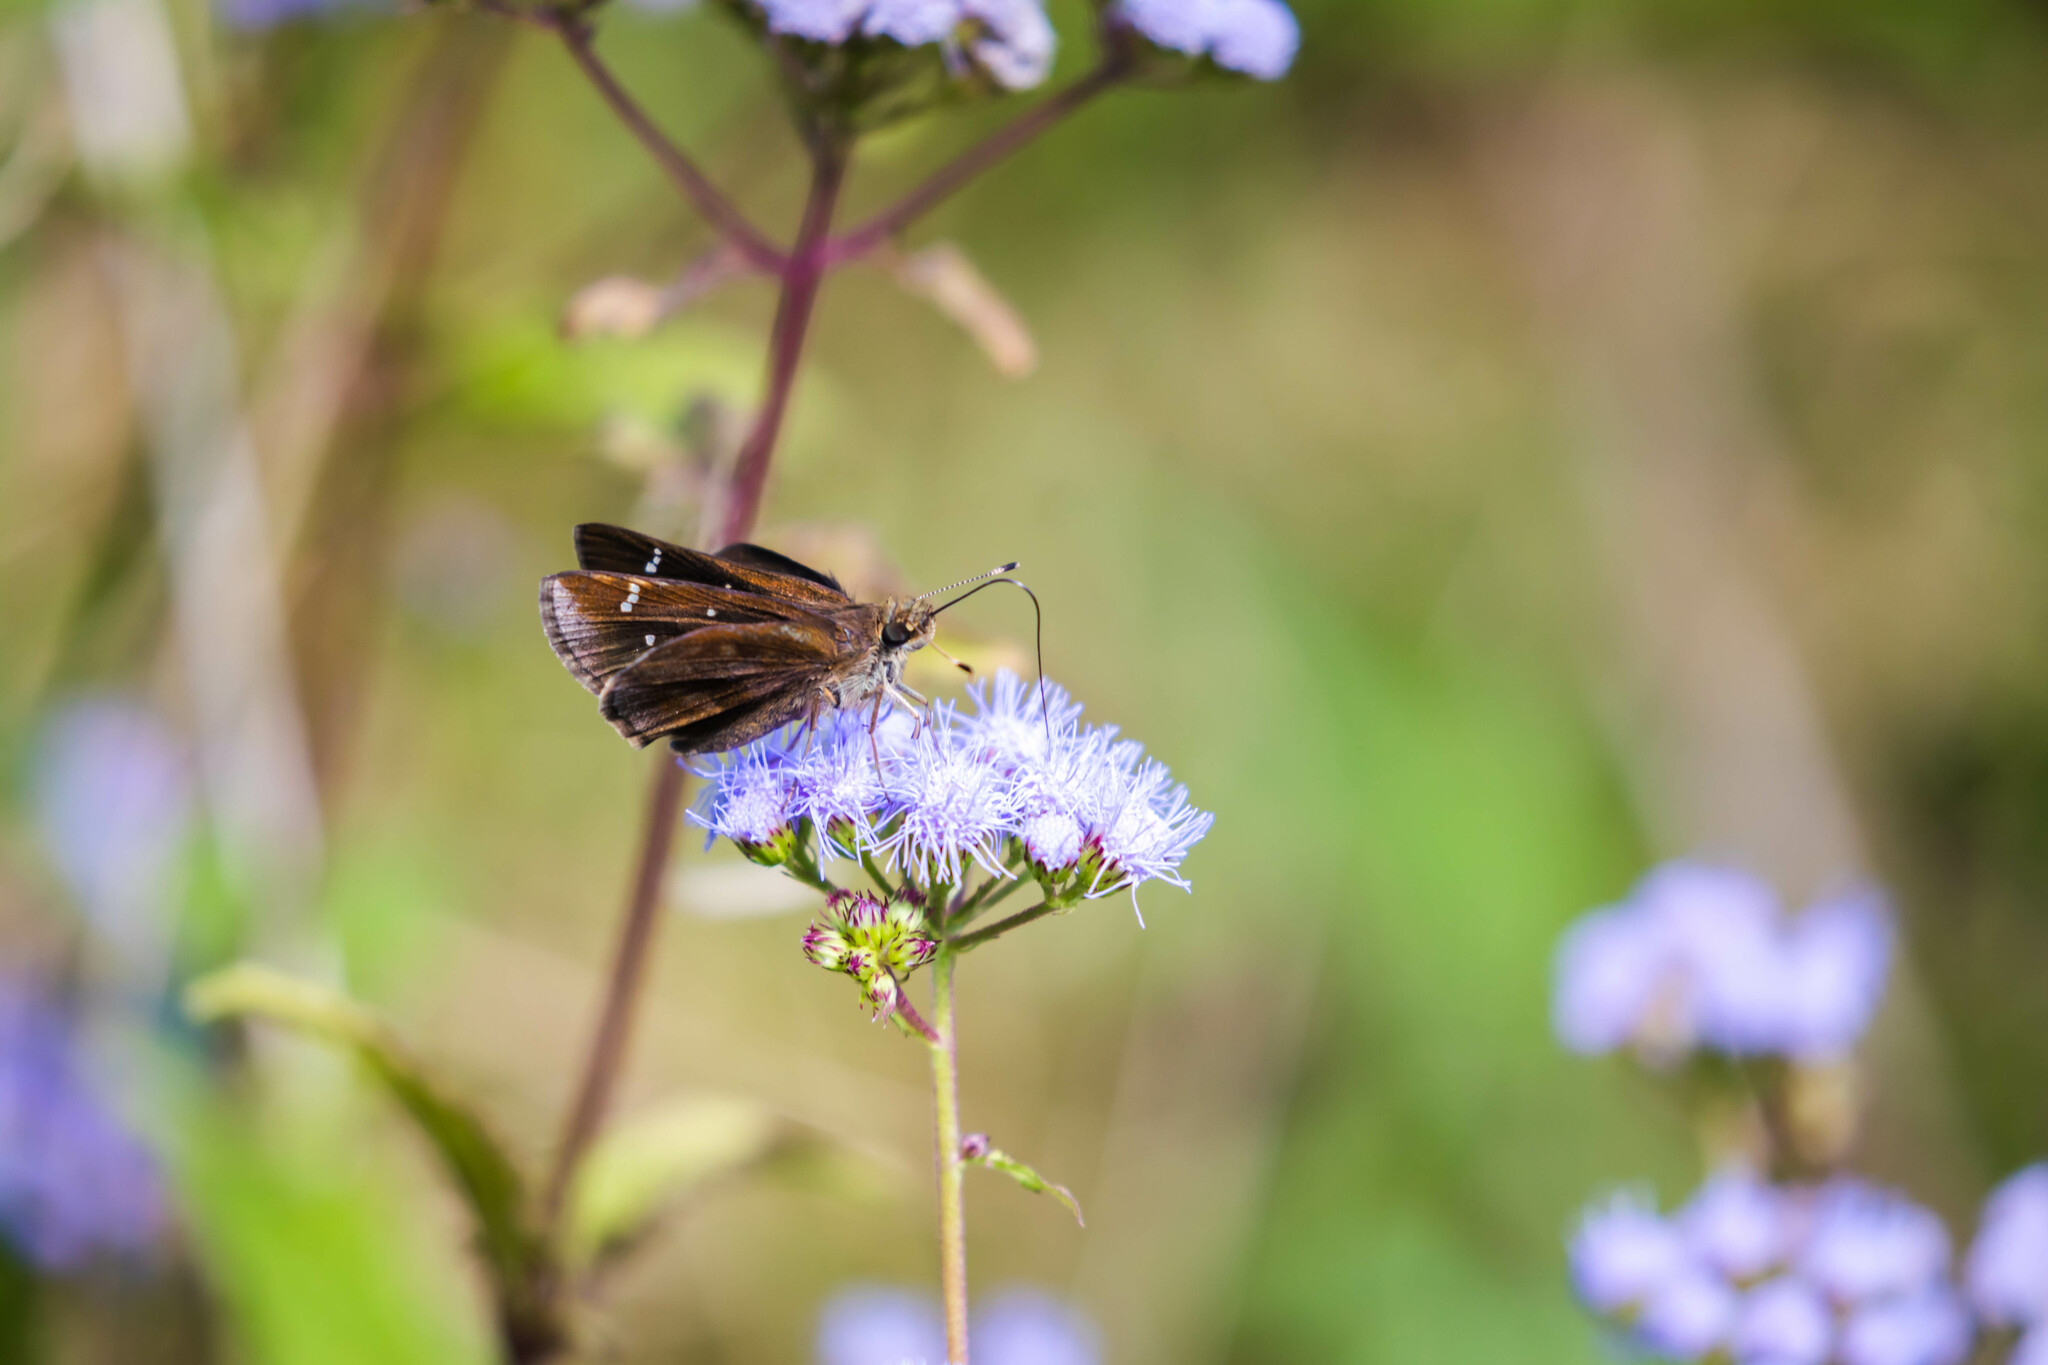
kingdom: Animalia
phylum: Arthropoda
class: Insecta
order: Lepidoptera
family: Hesperiidae
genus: Lerema
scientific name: Lerema accius
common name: Clouded skipper
